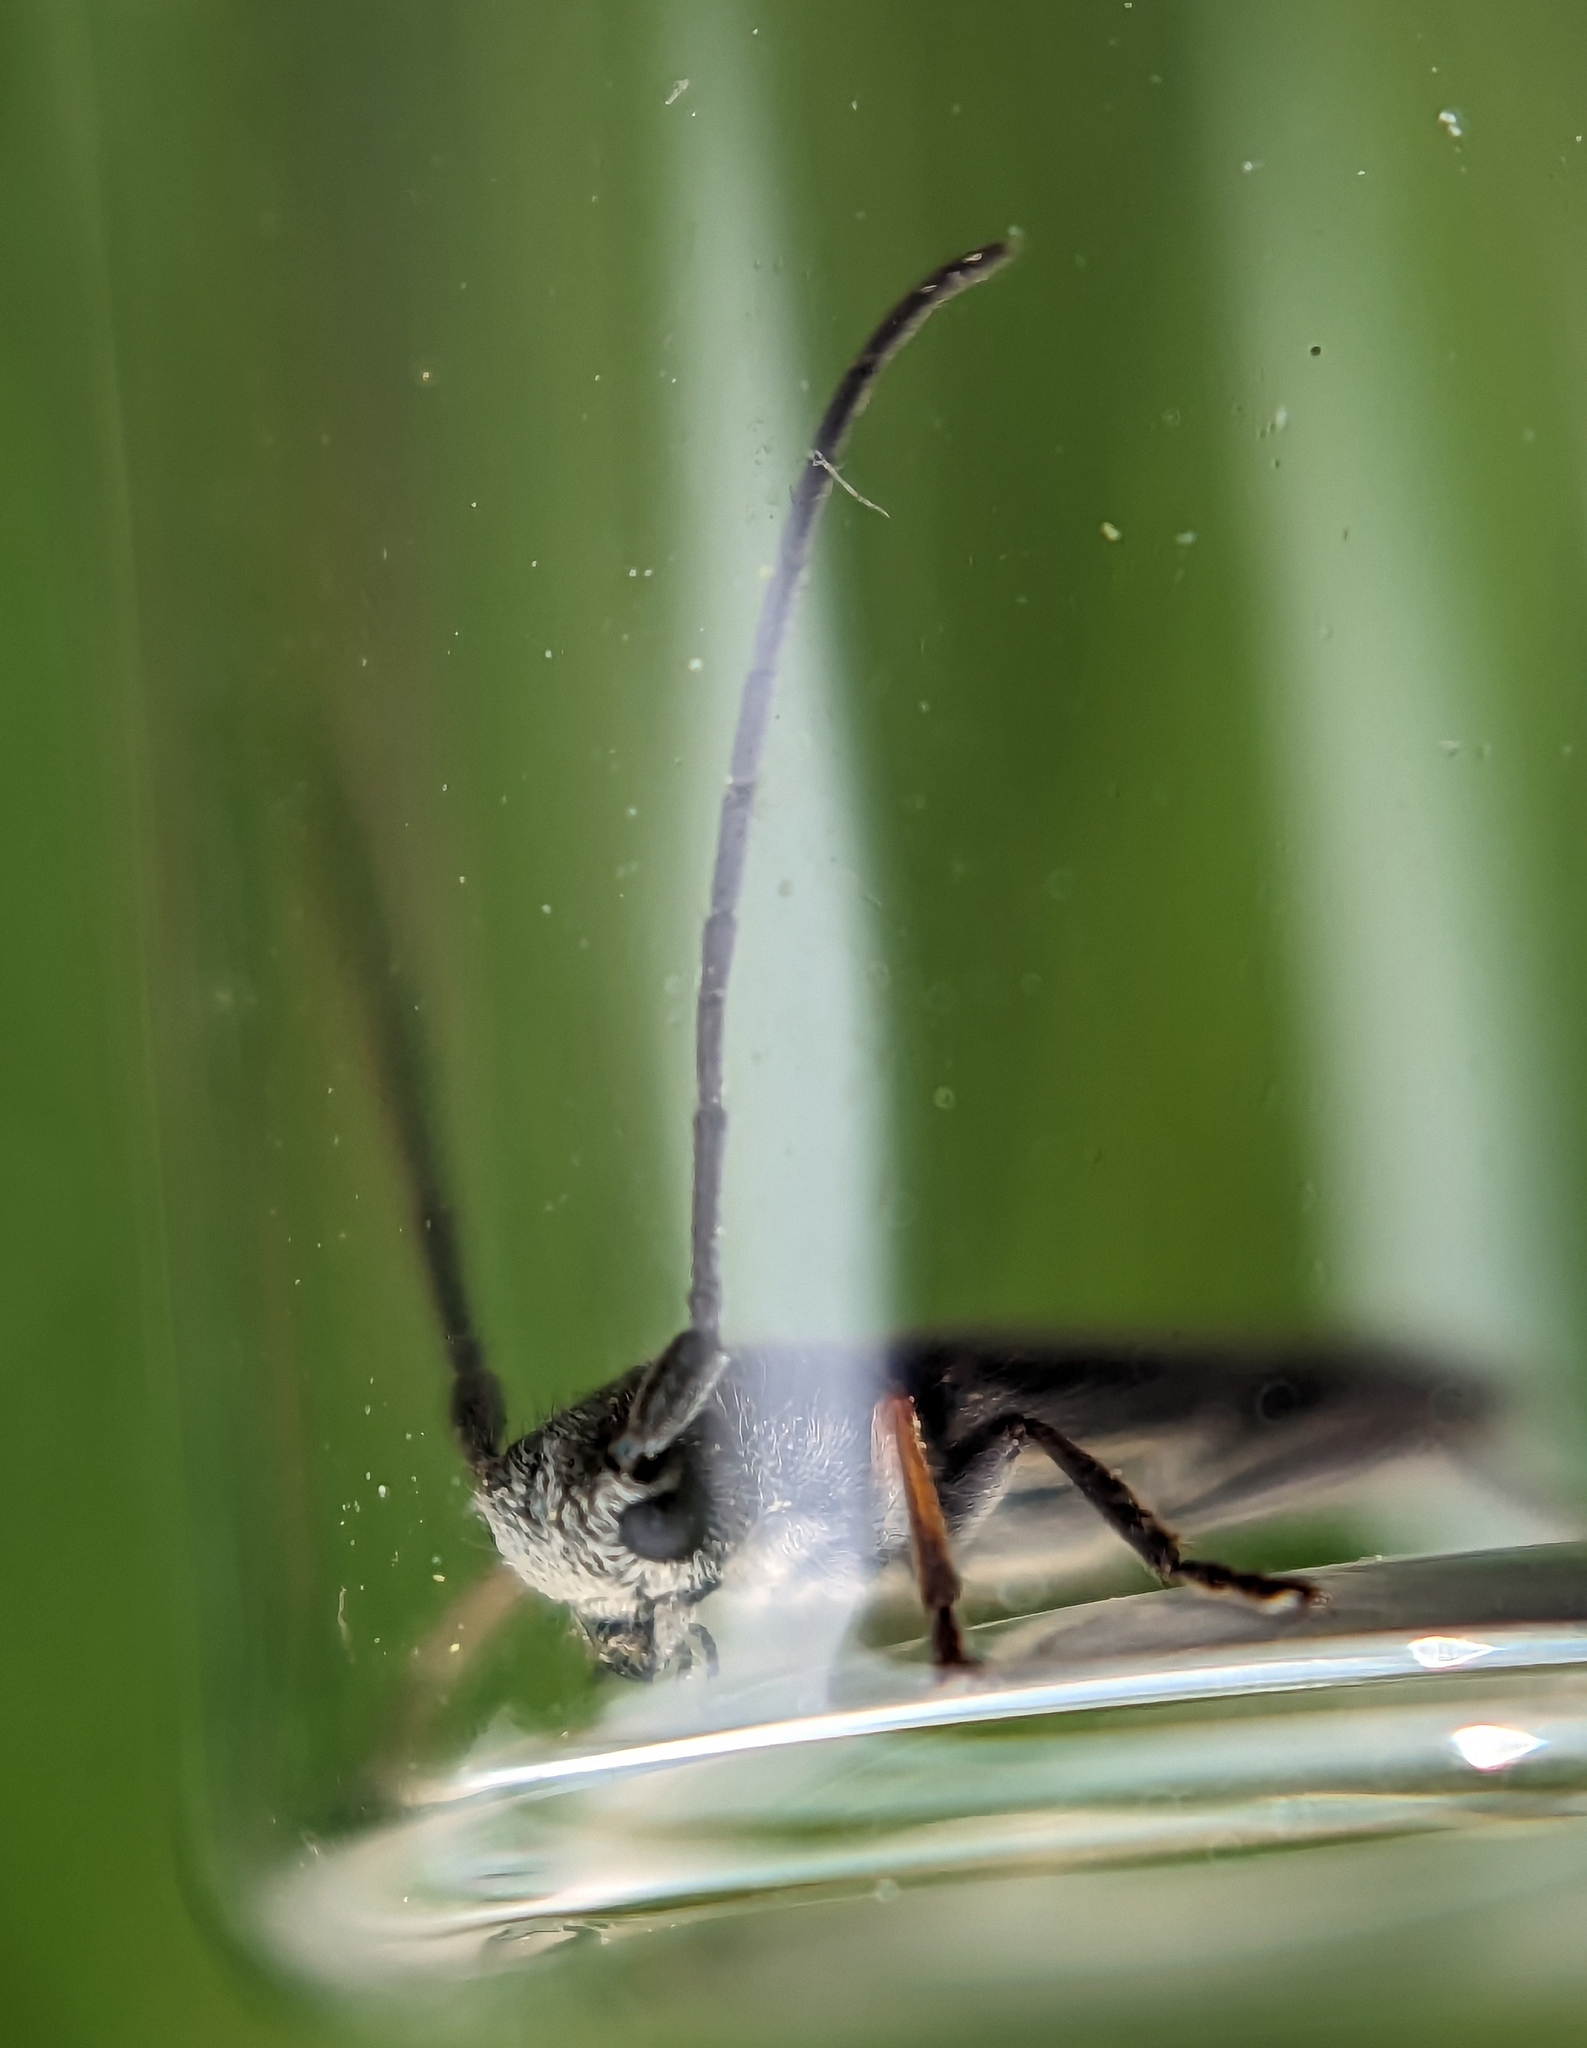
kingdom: Animalia
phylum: Arthropoda
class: Insecta
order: Coleoptera
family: Cerambycidae
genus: Phytoecia
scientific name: Phytoecia cylindrica
